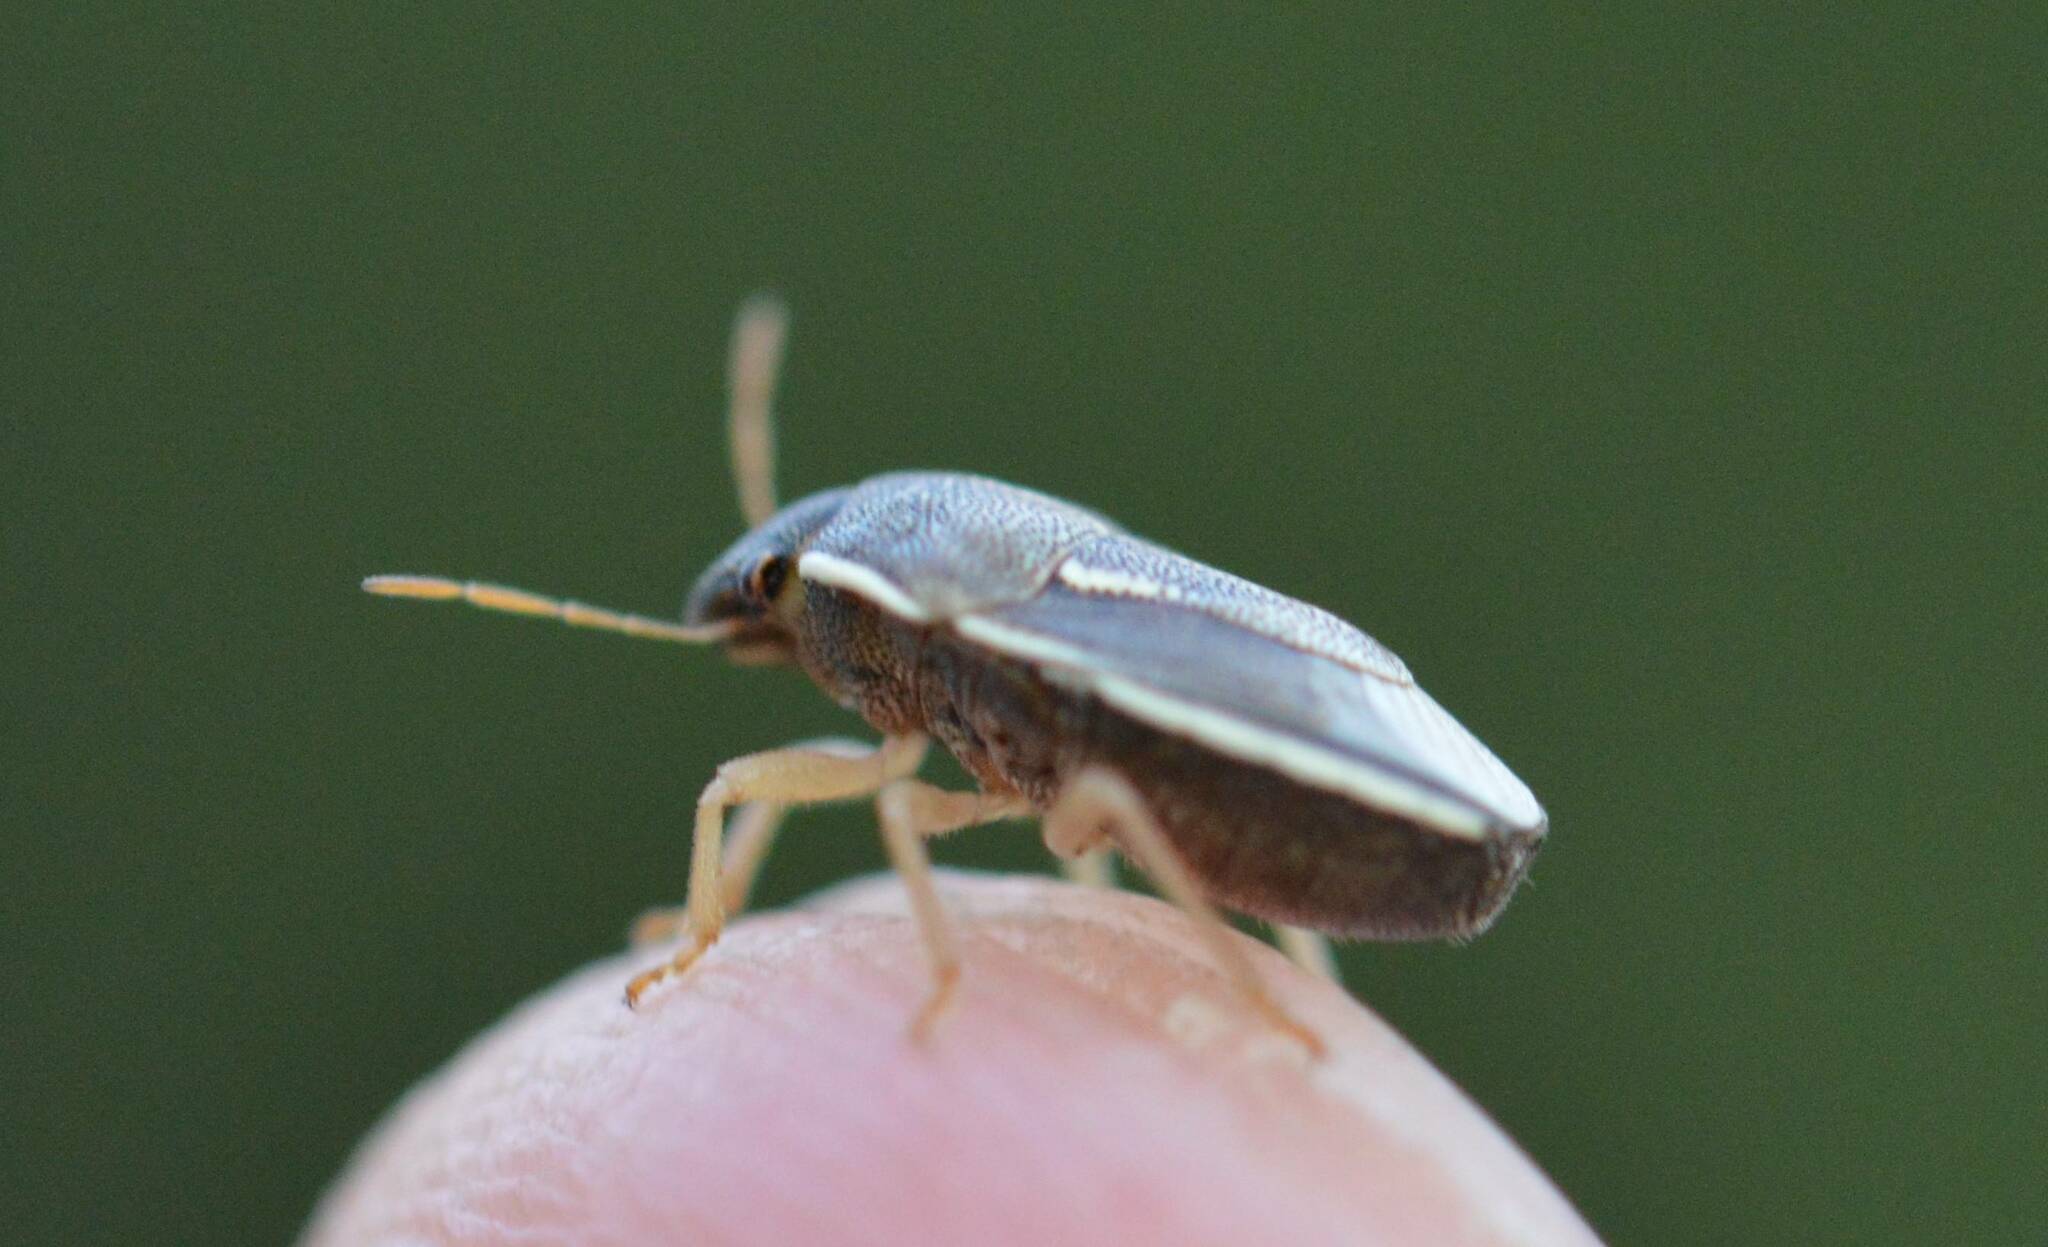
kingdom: Animalia
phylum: Arthropoda
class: Insecta
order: Hemiptera
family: Pentatomidae
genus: Neottiglossa
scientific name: Neottiglossa flavomarginata
